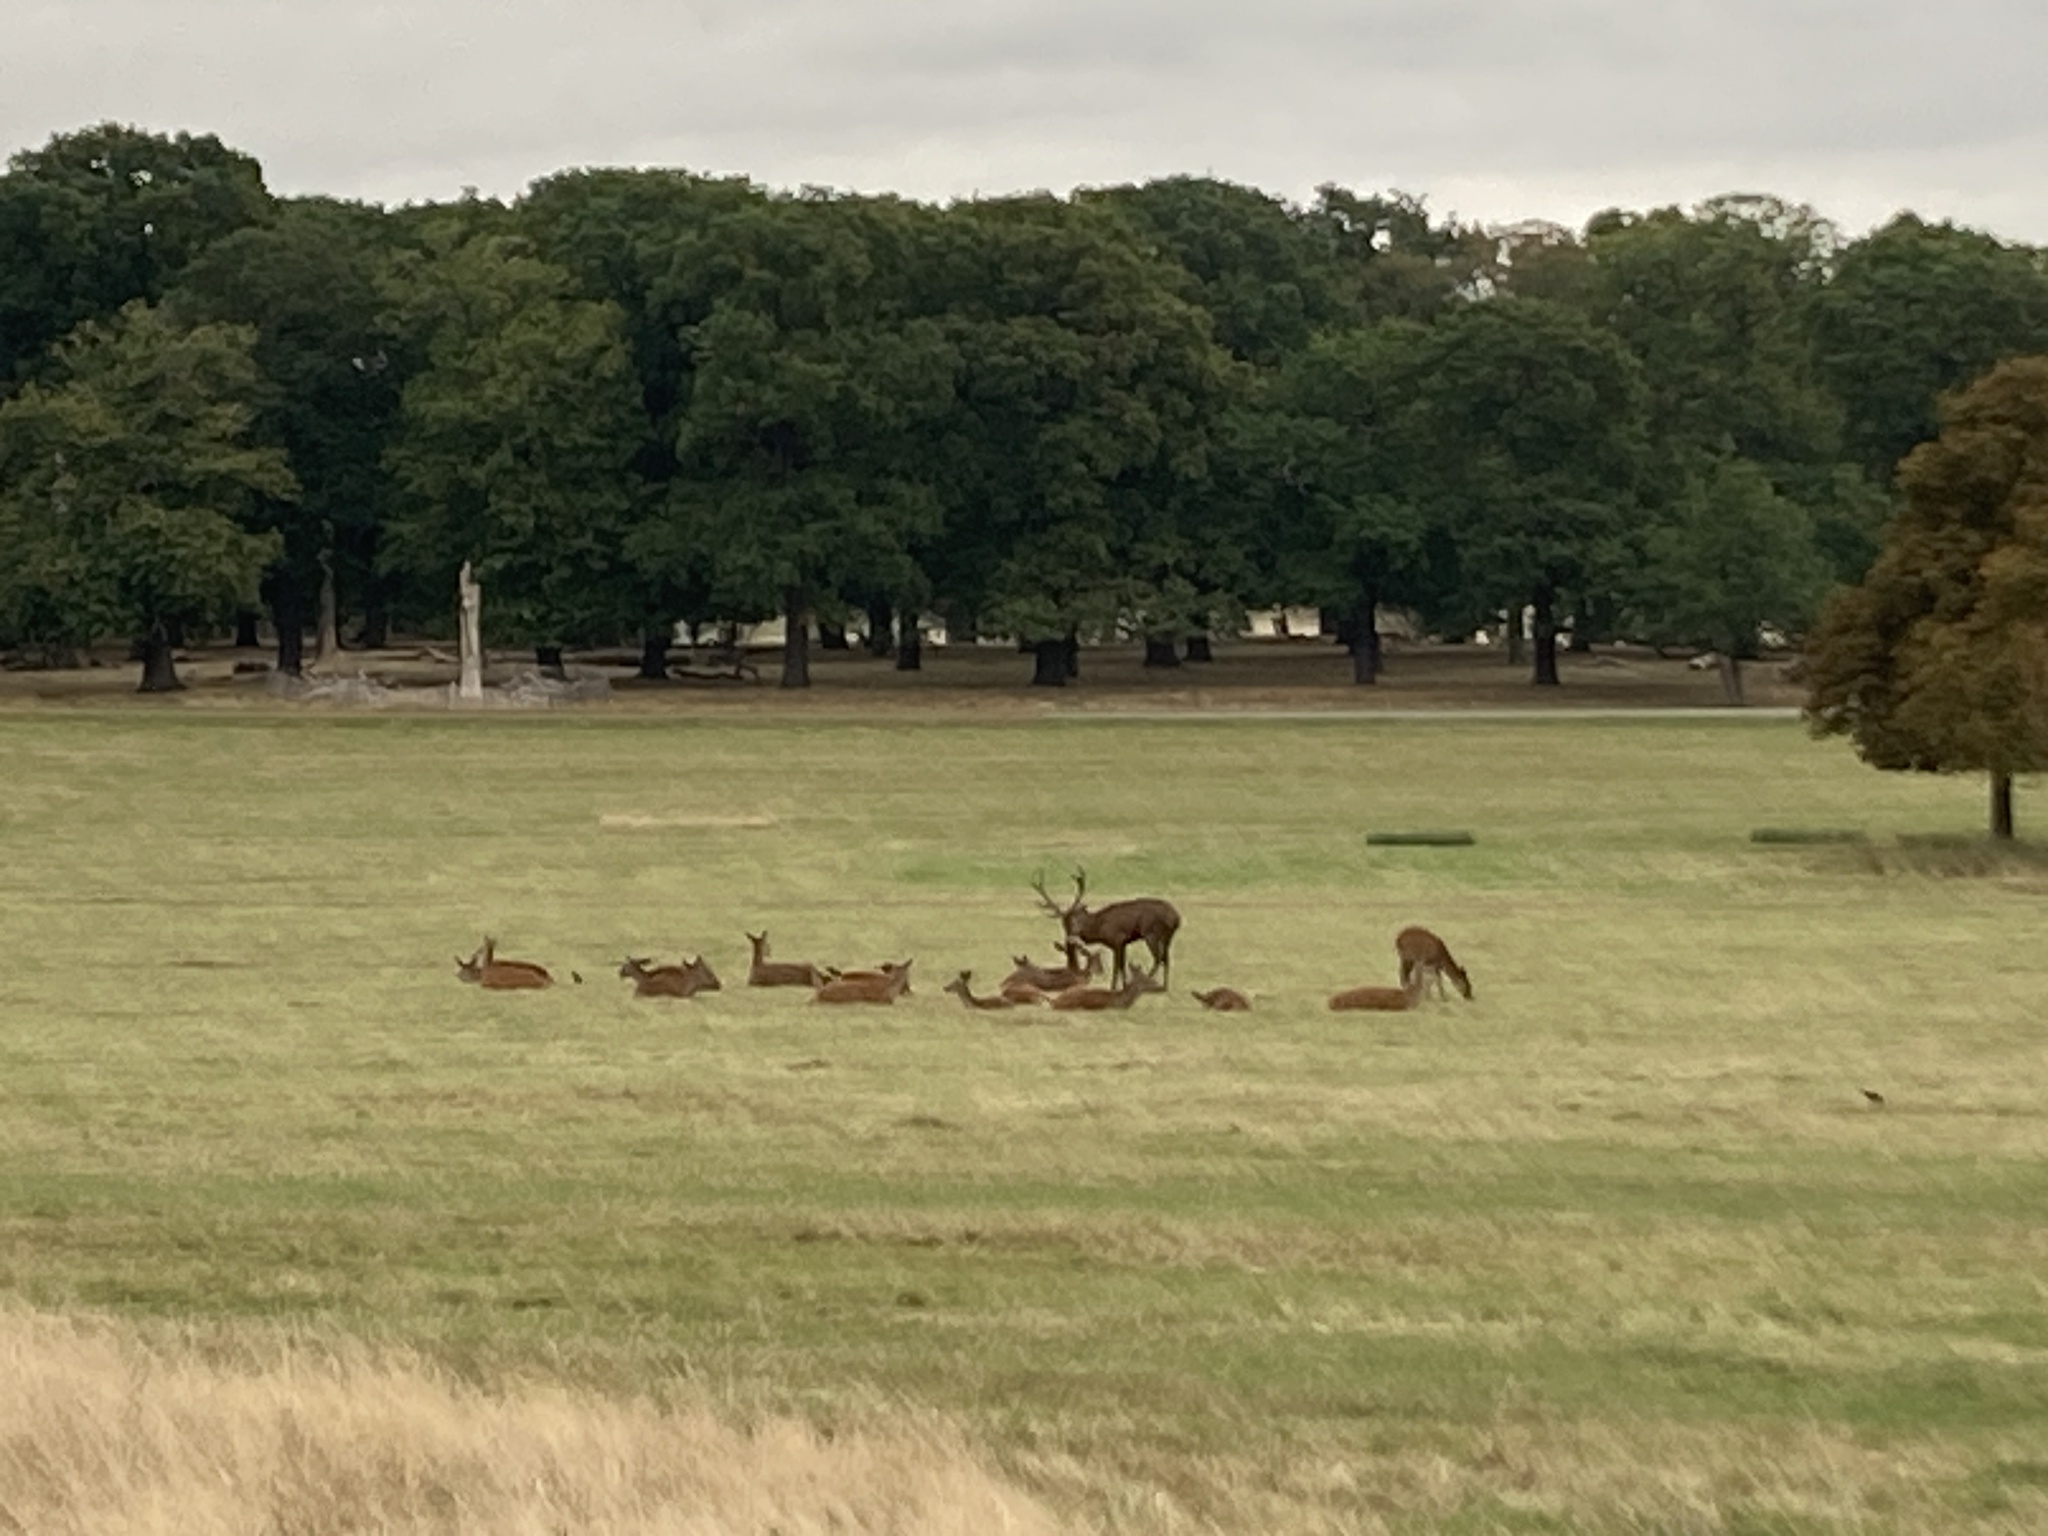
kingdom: Animalia
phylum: Chordata
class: Mammalia
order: Artiodactyla
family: Cervidae
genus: Cervus
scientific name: Cervus elaphus
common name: Red deer
